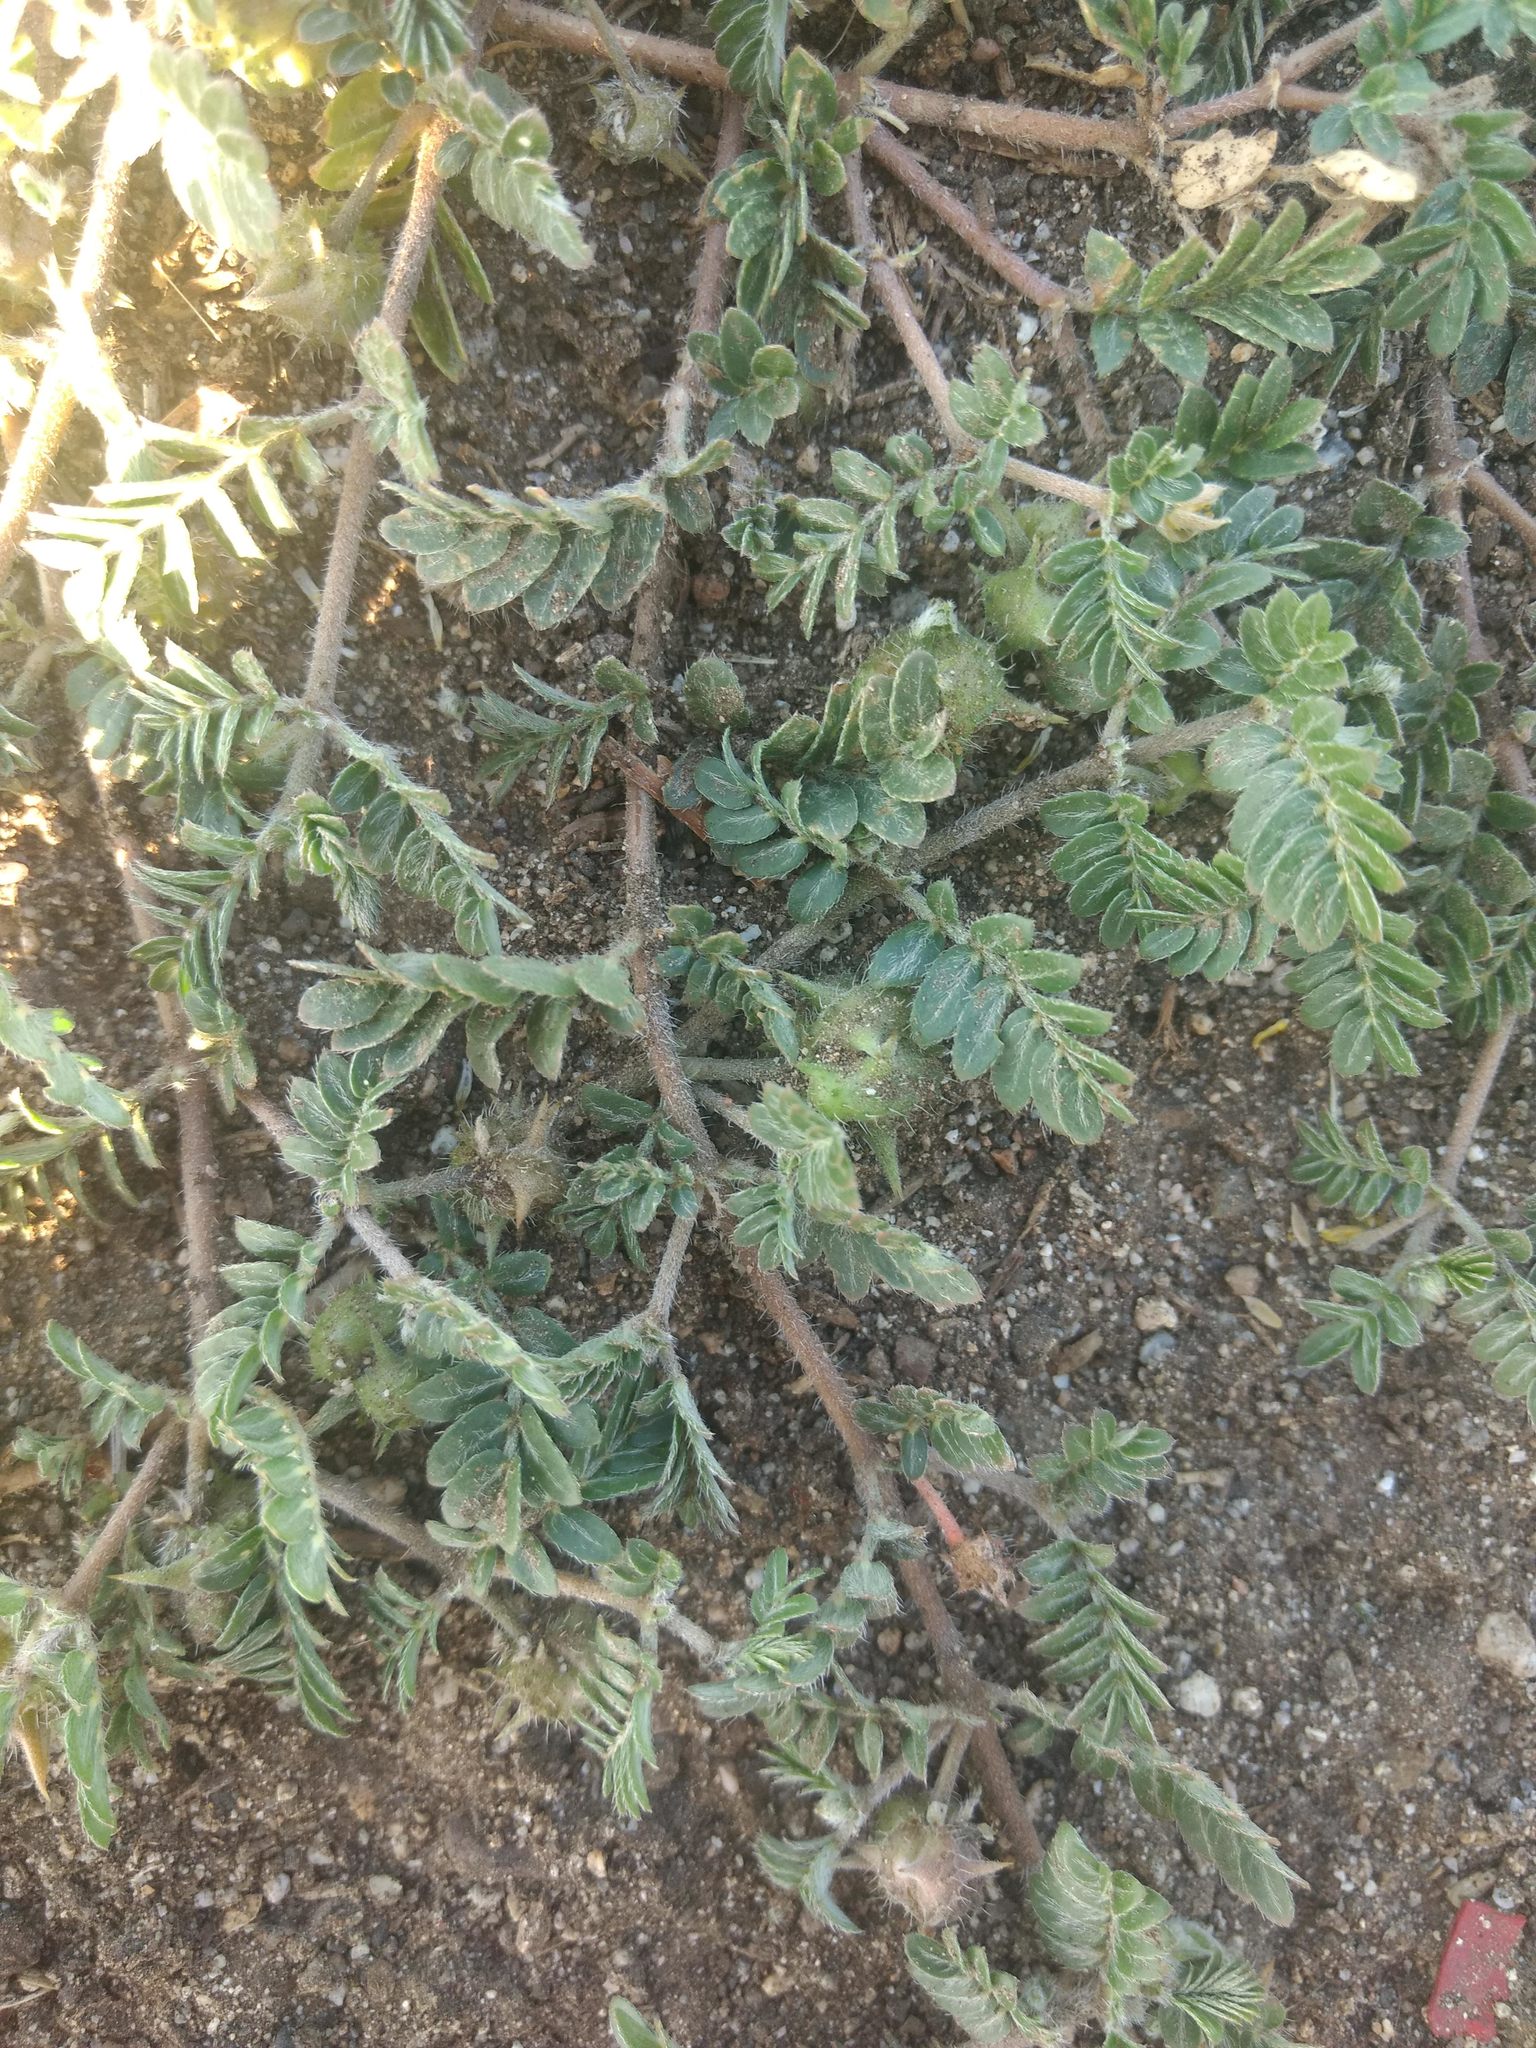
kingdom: Plantae
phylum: Tracheophyta
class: Magnoliopsida
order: Zygophyllales
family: Zygophyllaceae
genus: Tribulus
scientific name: Tribulus terrestris
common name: Puncturevine
